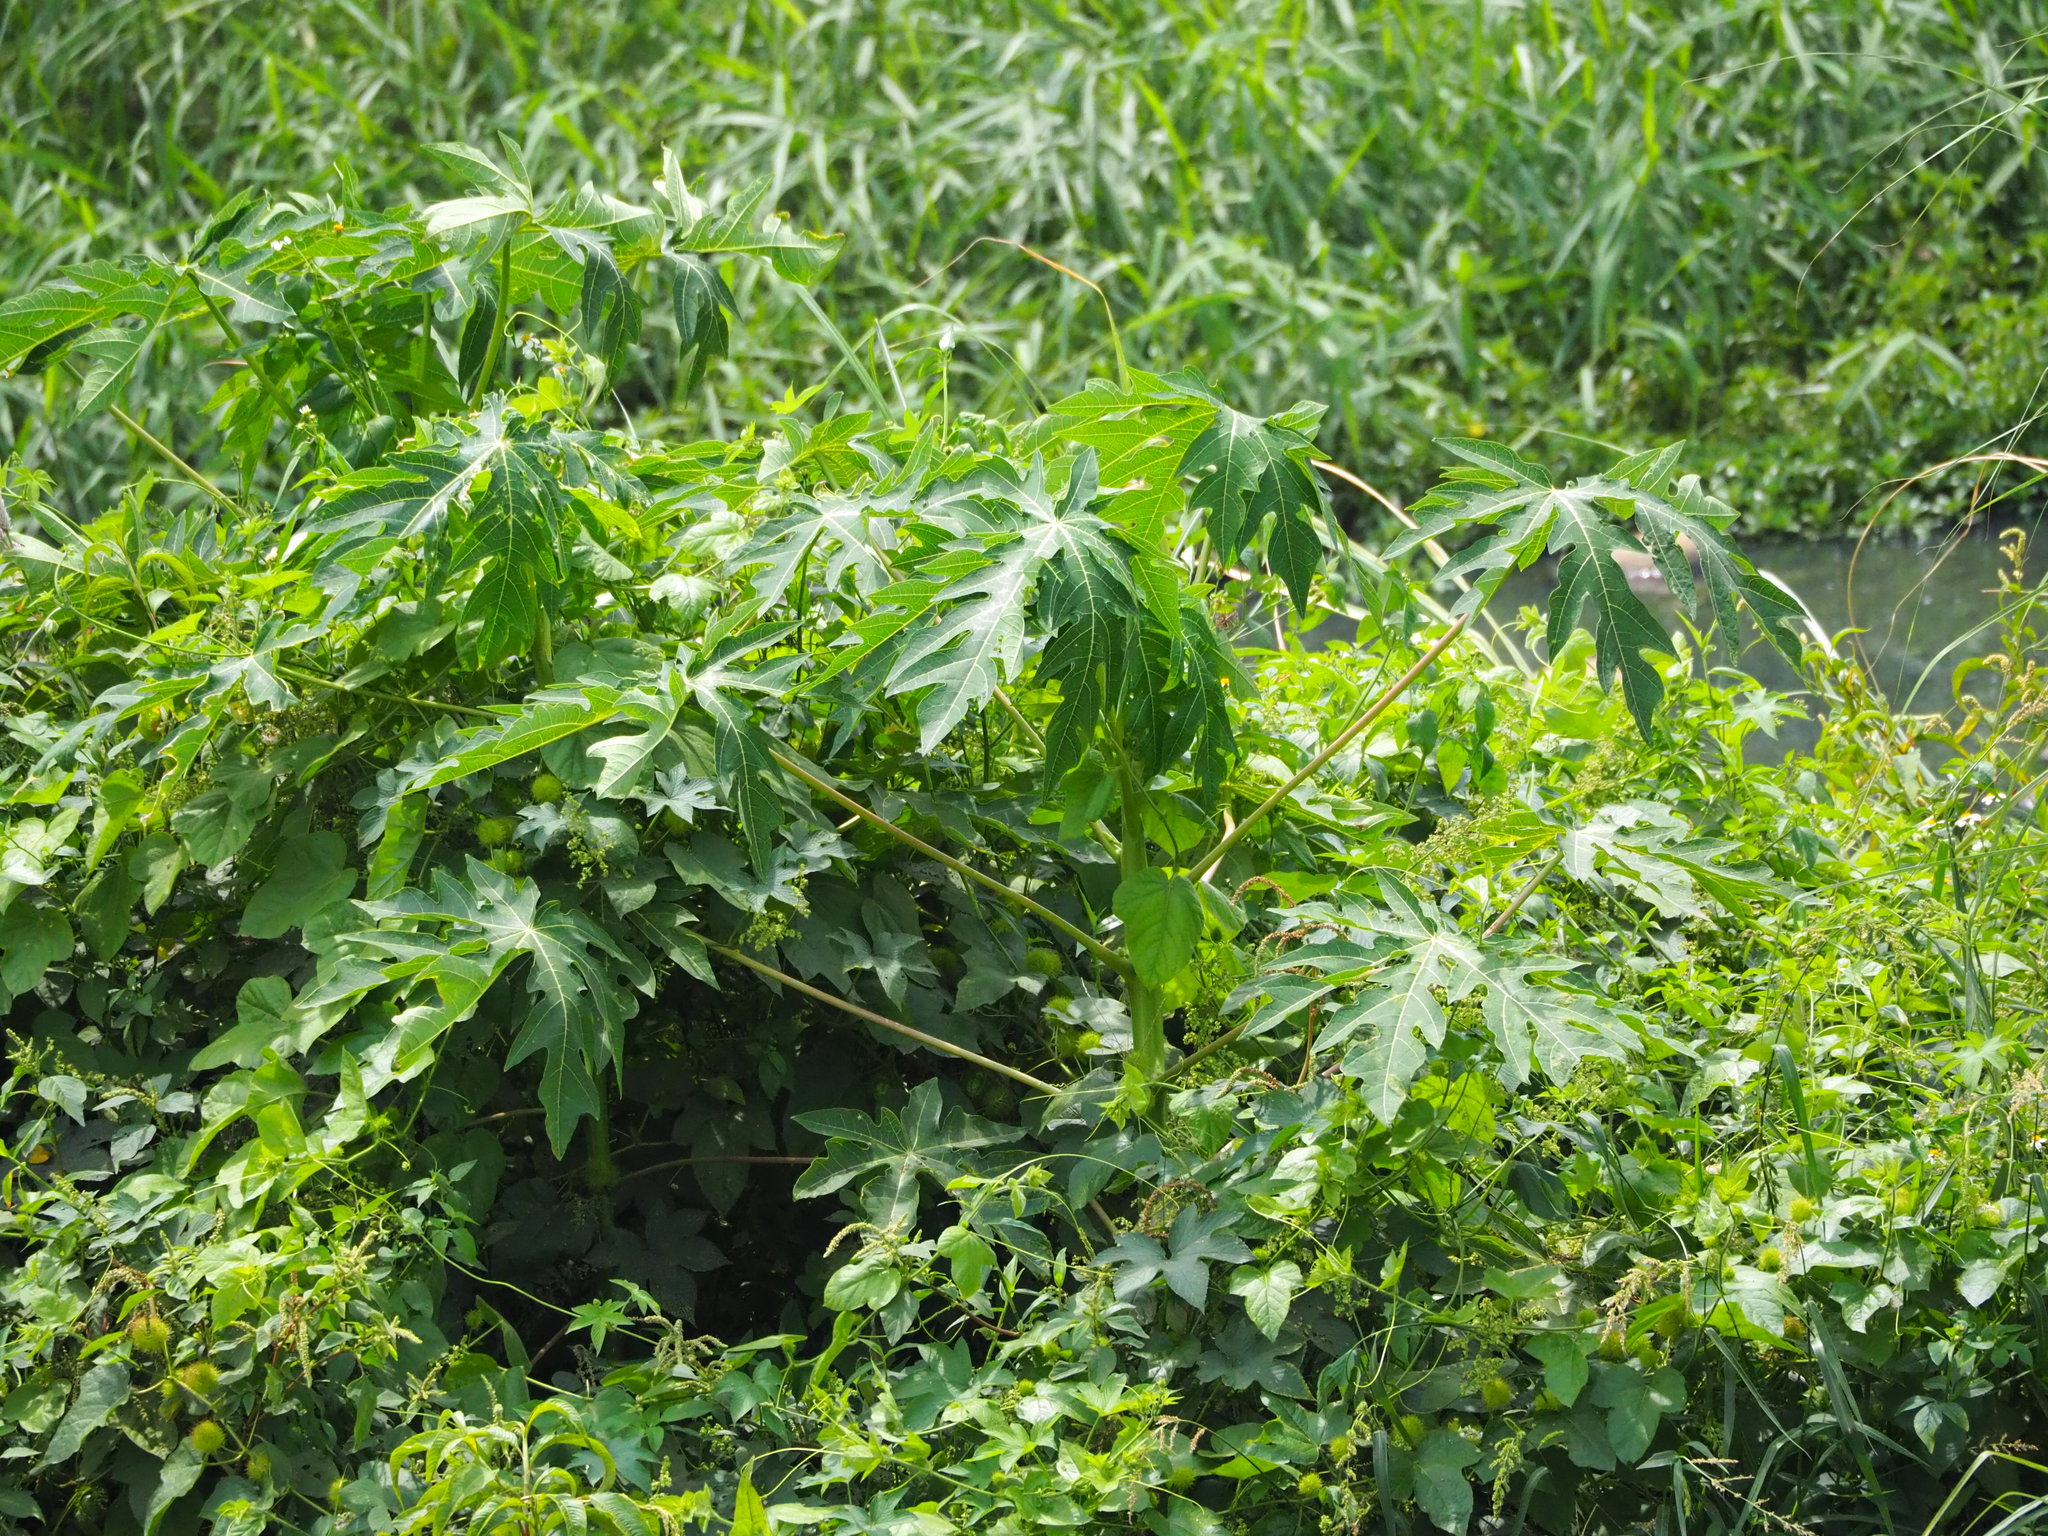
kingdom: Plantae
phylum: Tracheophyta
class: Magnoliopsida
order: Brassicales
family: Caricaceae
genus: Carica
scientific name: Carica papaya
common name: Papaya
